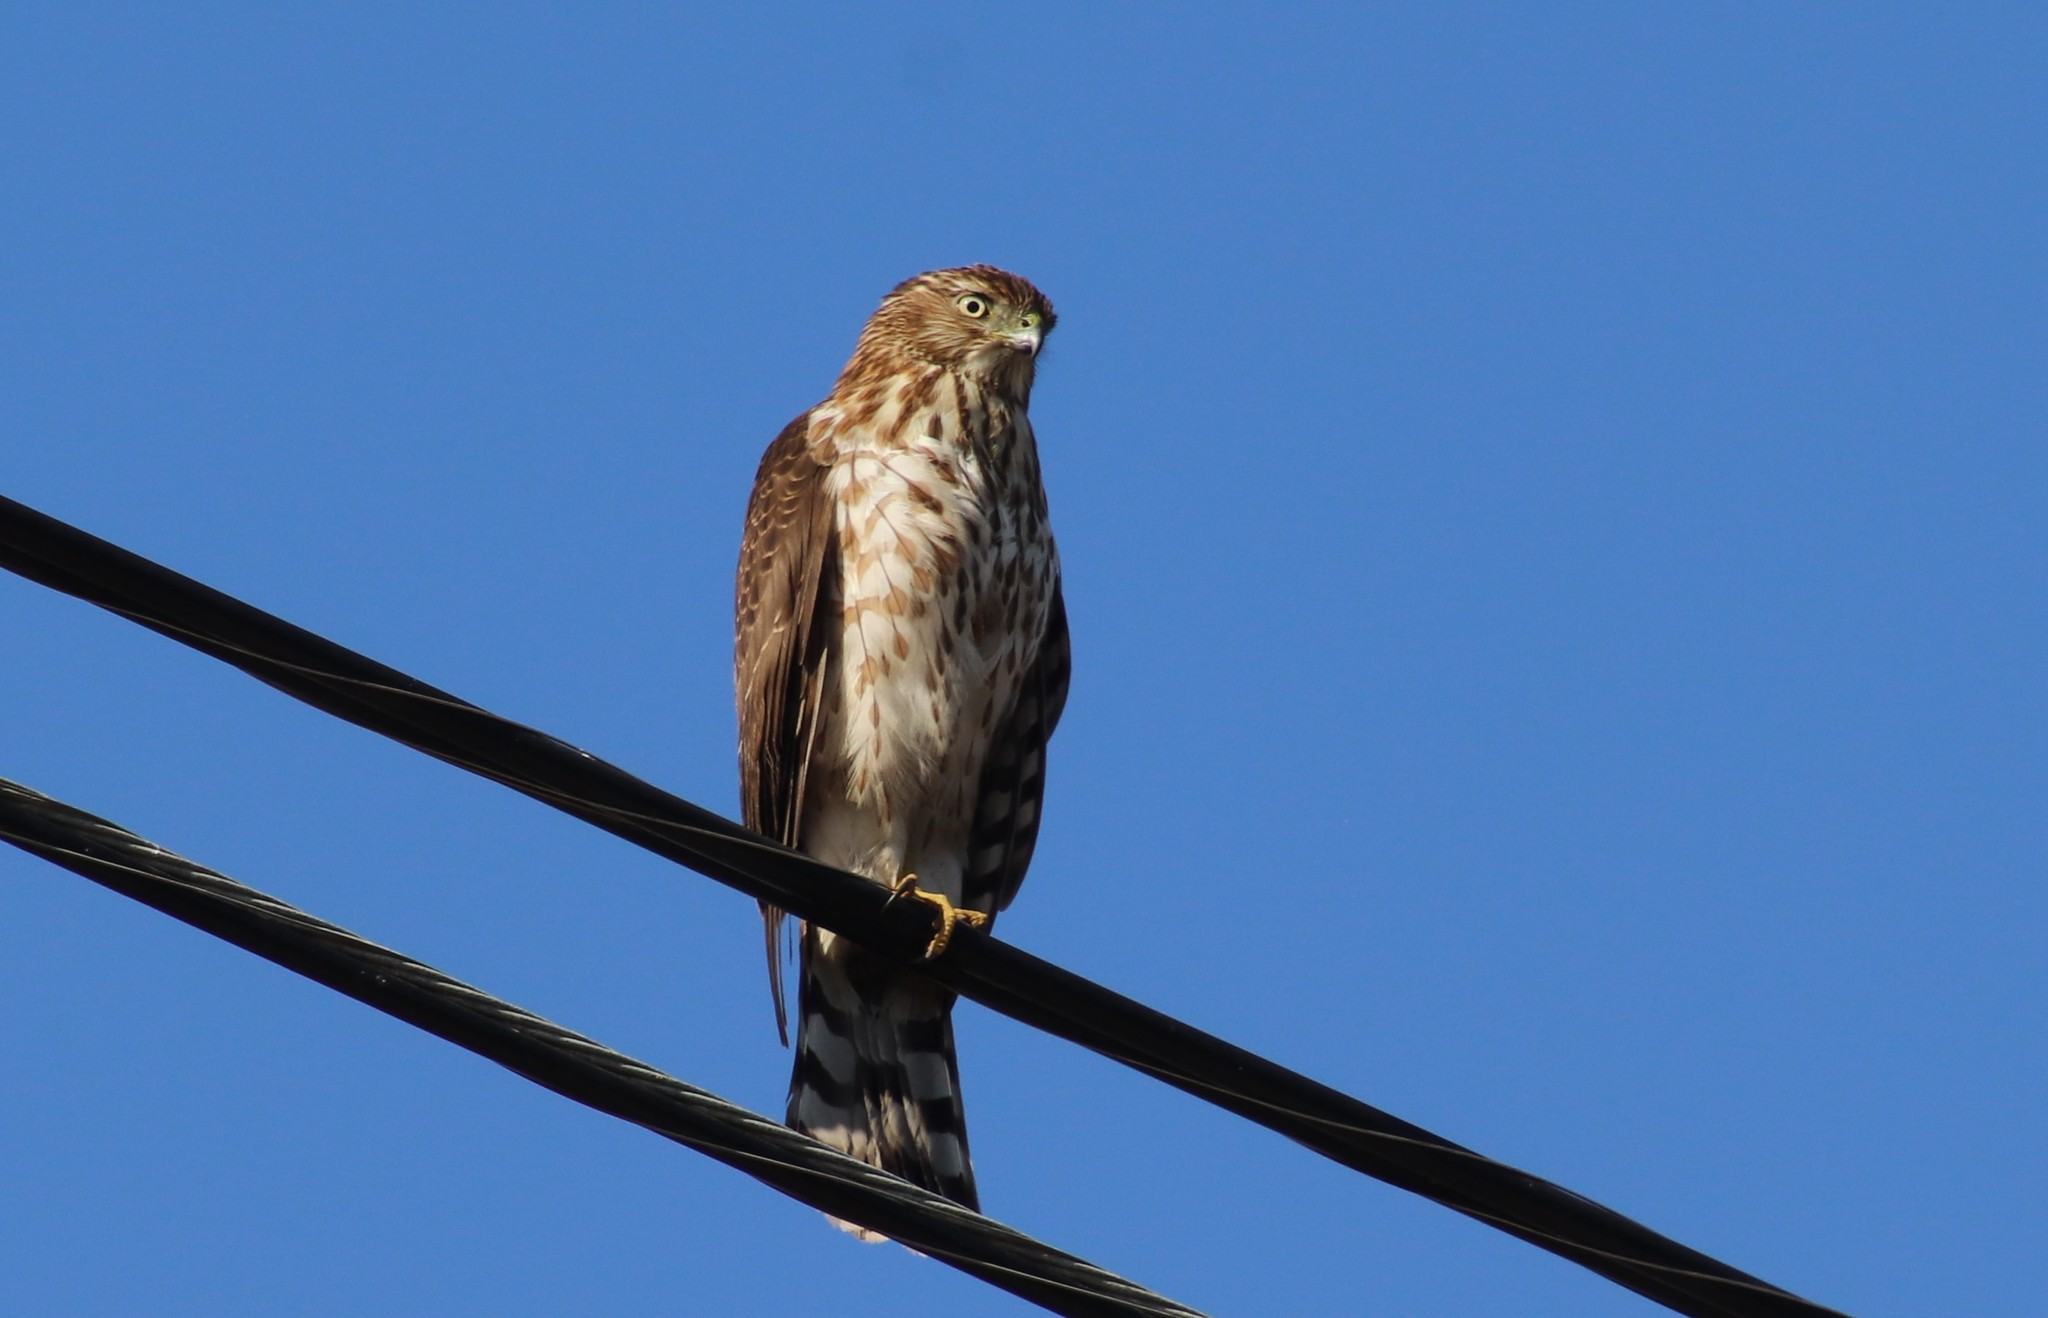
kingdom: Animalia
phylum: Chordata
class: Aves
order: Accipitriformes
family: Accipitridae
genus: Accipiter
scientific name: Accipiter cooperii
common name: Cooper's hawk
